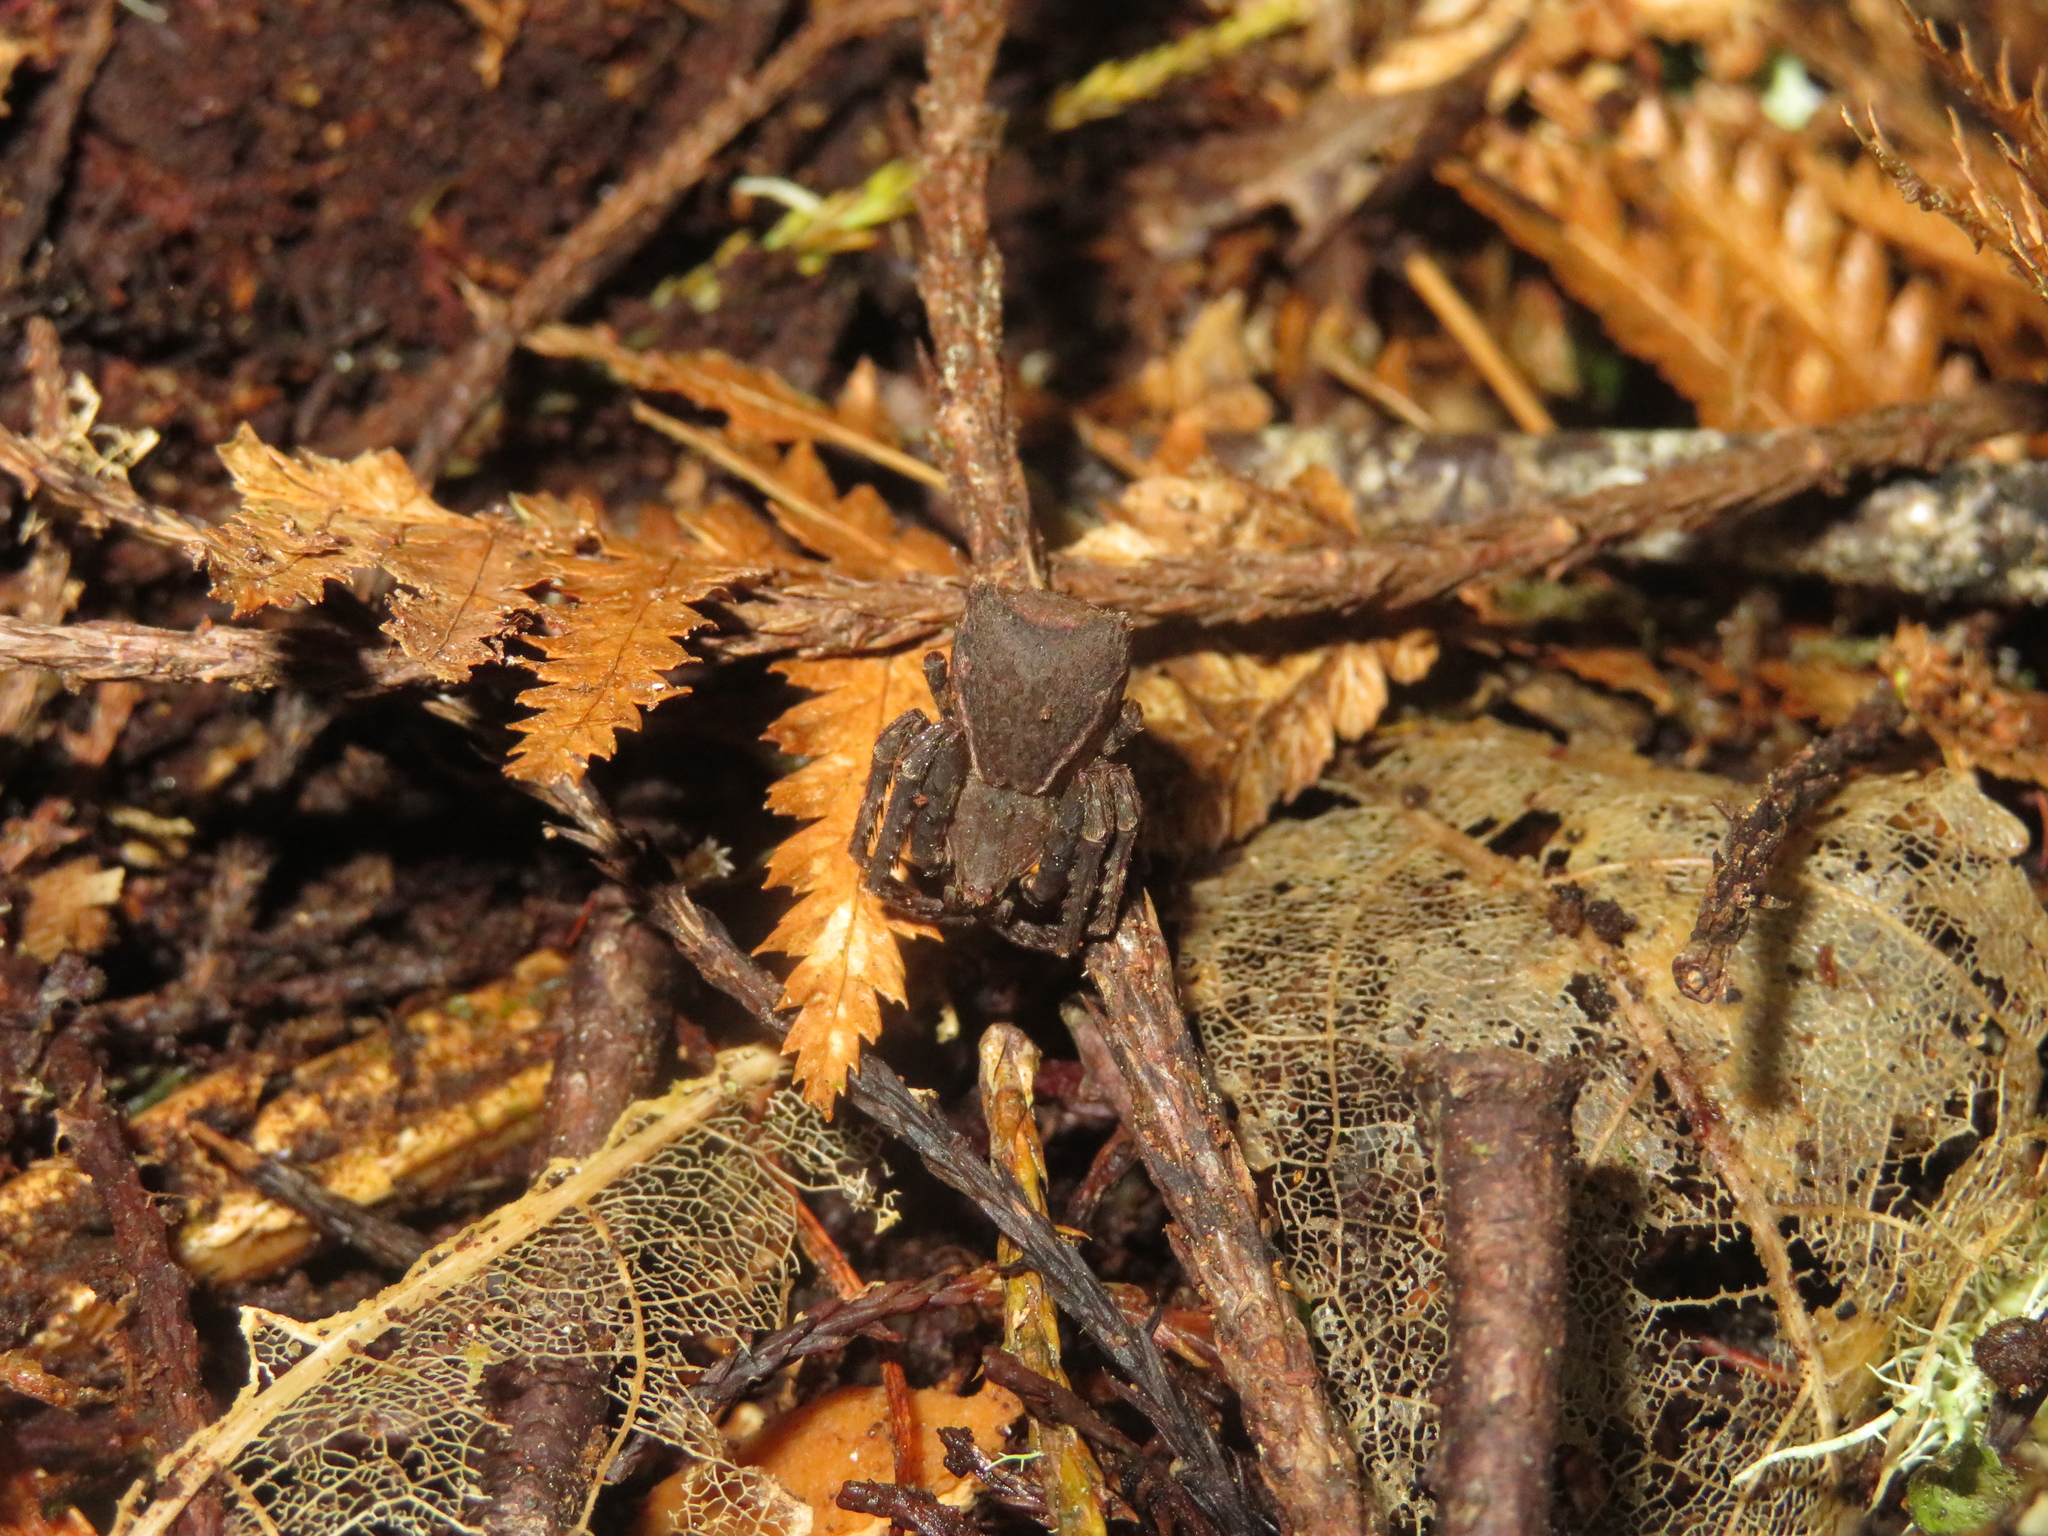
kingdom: Animalia
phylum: Arthropoda
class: Arachnida
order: Araneae
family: Thomisidae
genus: Sidymella
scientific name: Sidymella angularis
